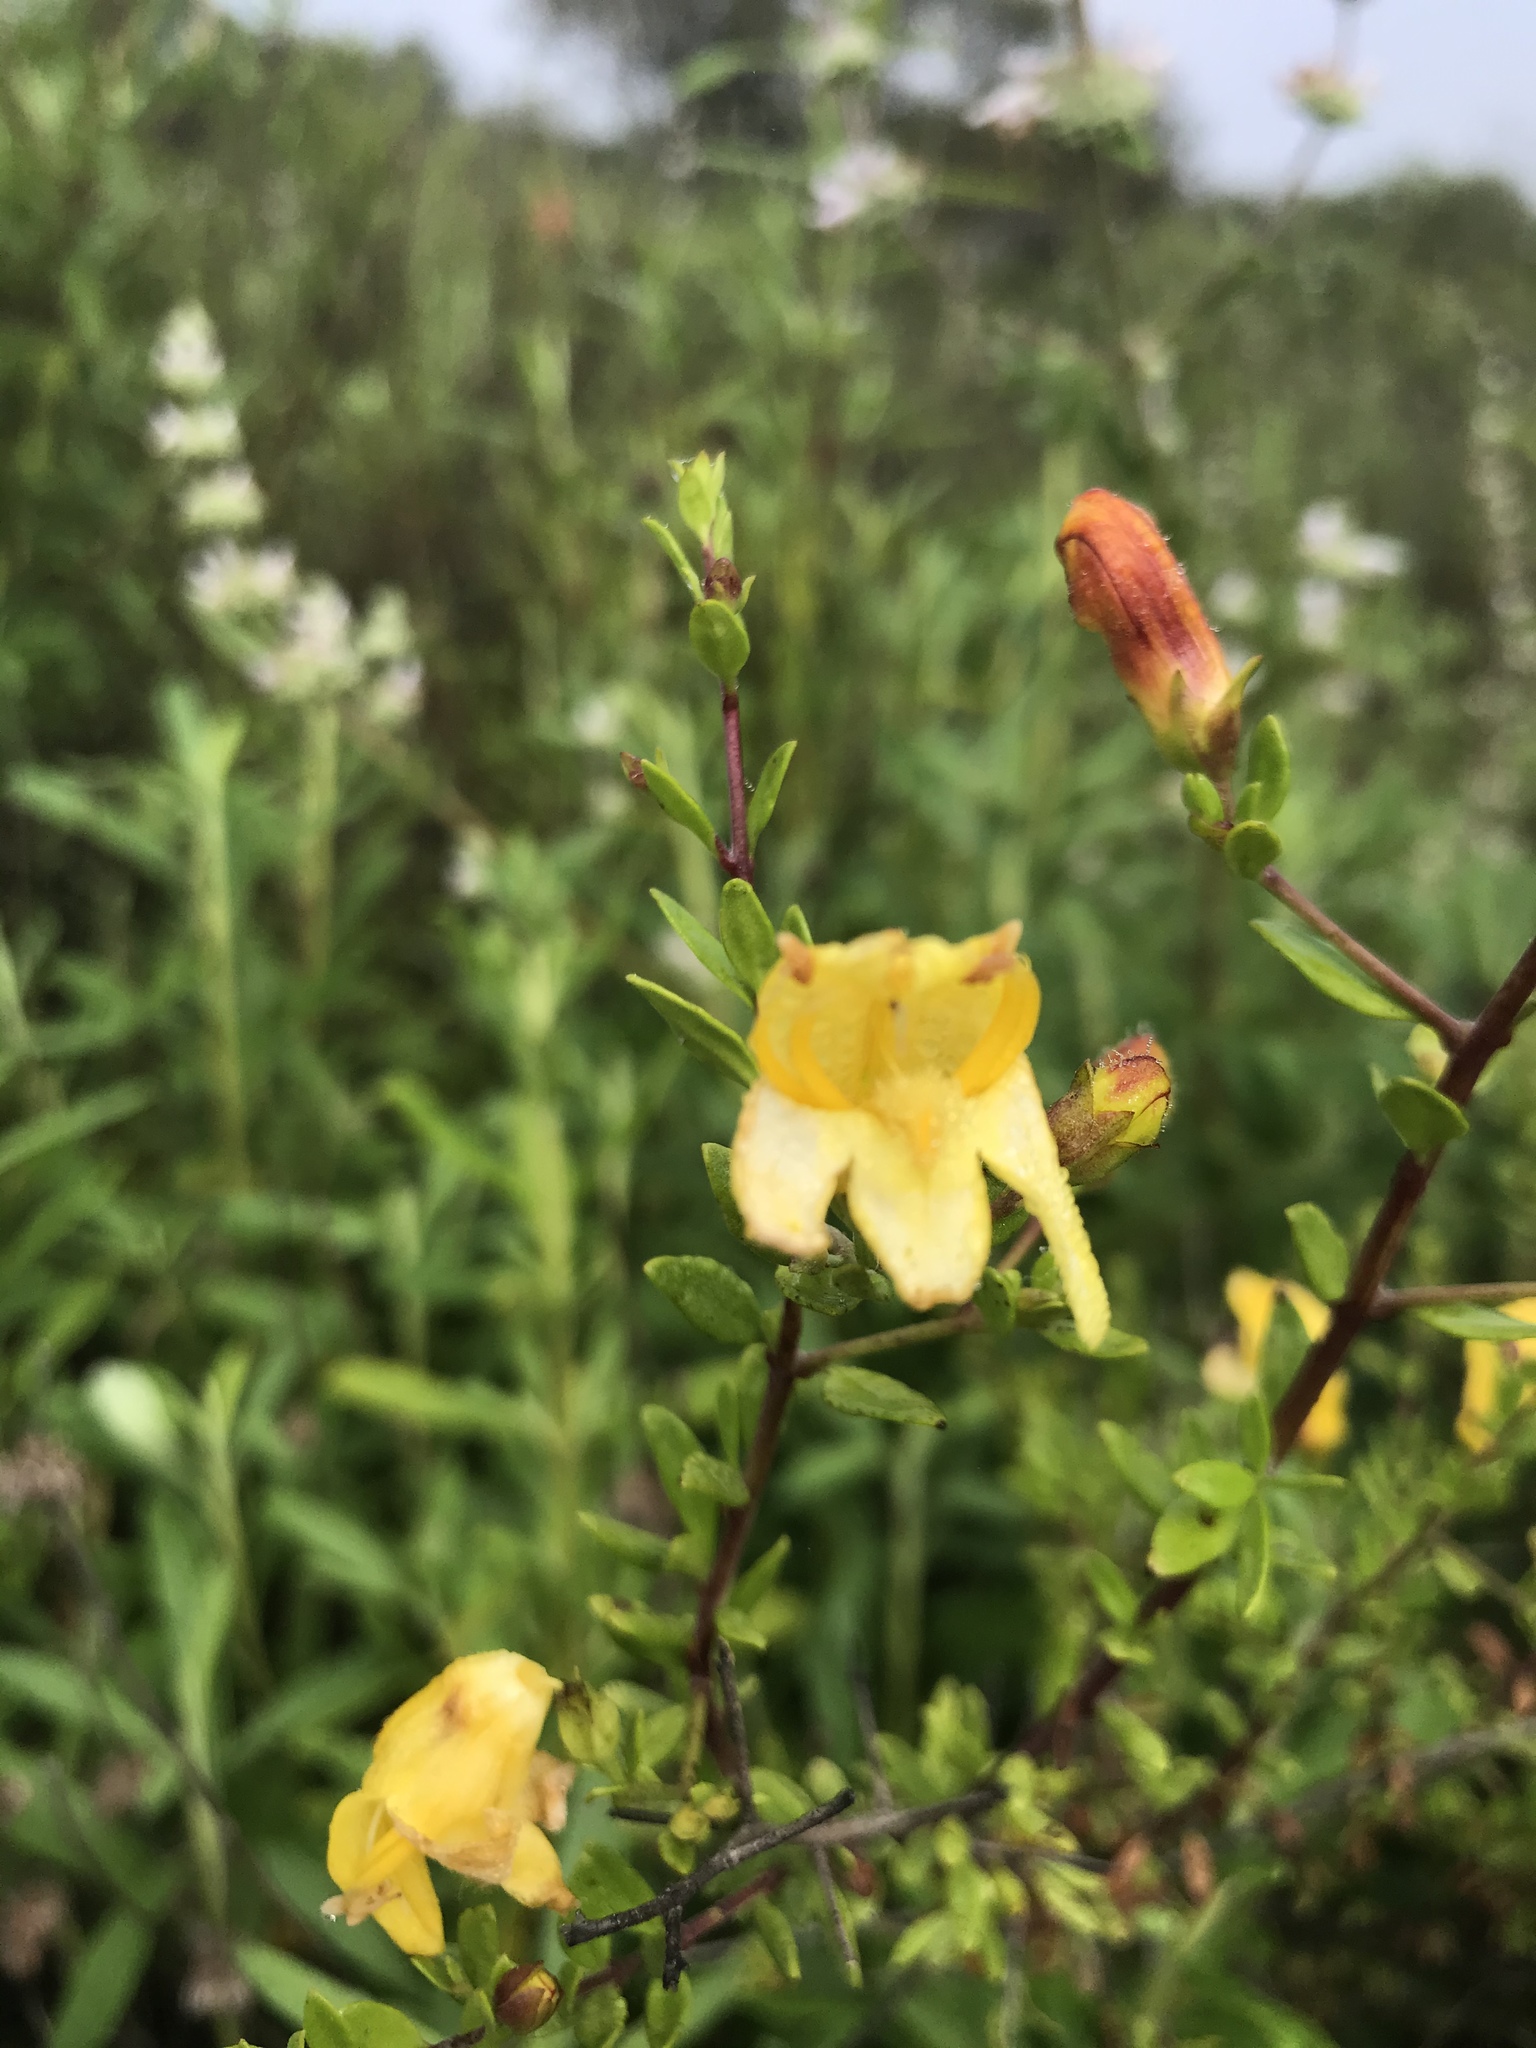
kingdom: Plantae
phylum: Tracheophyta
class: Magnoliopsida
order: Lamiales
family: Plantaginaceae
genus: Keckiella
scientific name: Keckiella antirrhinoides
